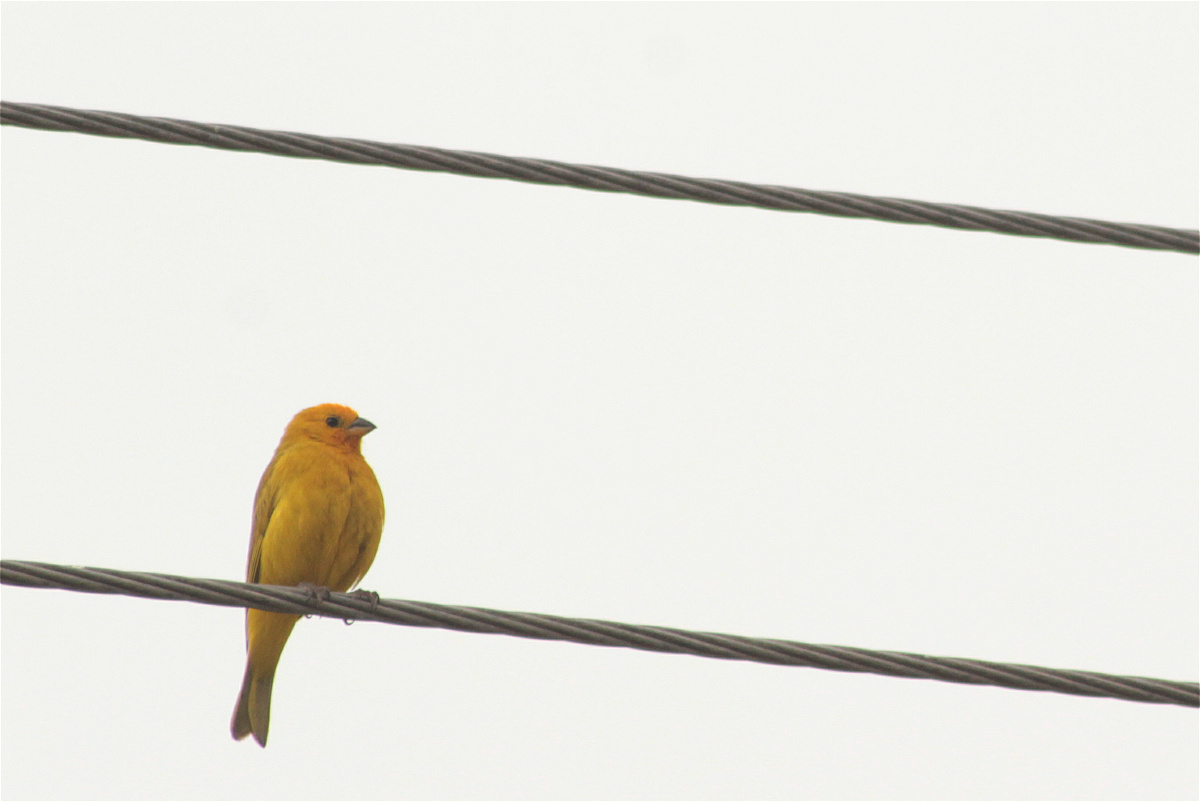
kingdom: Animalia
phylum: Chordata
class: Aves
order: Passeriformes
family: Thraupidae
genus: Sicalis
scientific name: Sicalis flaveola
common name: Saffron finch
